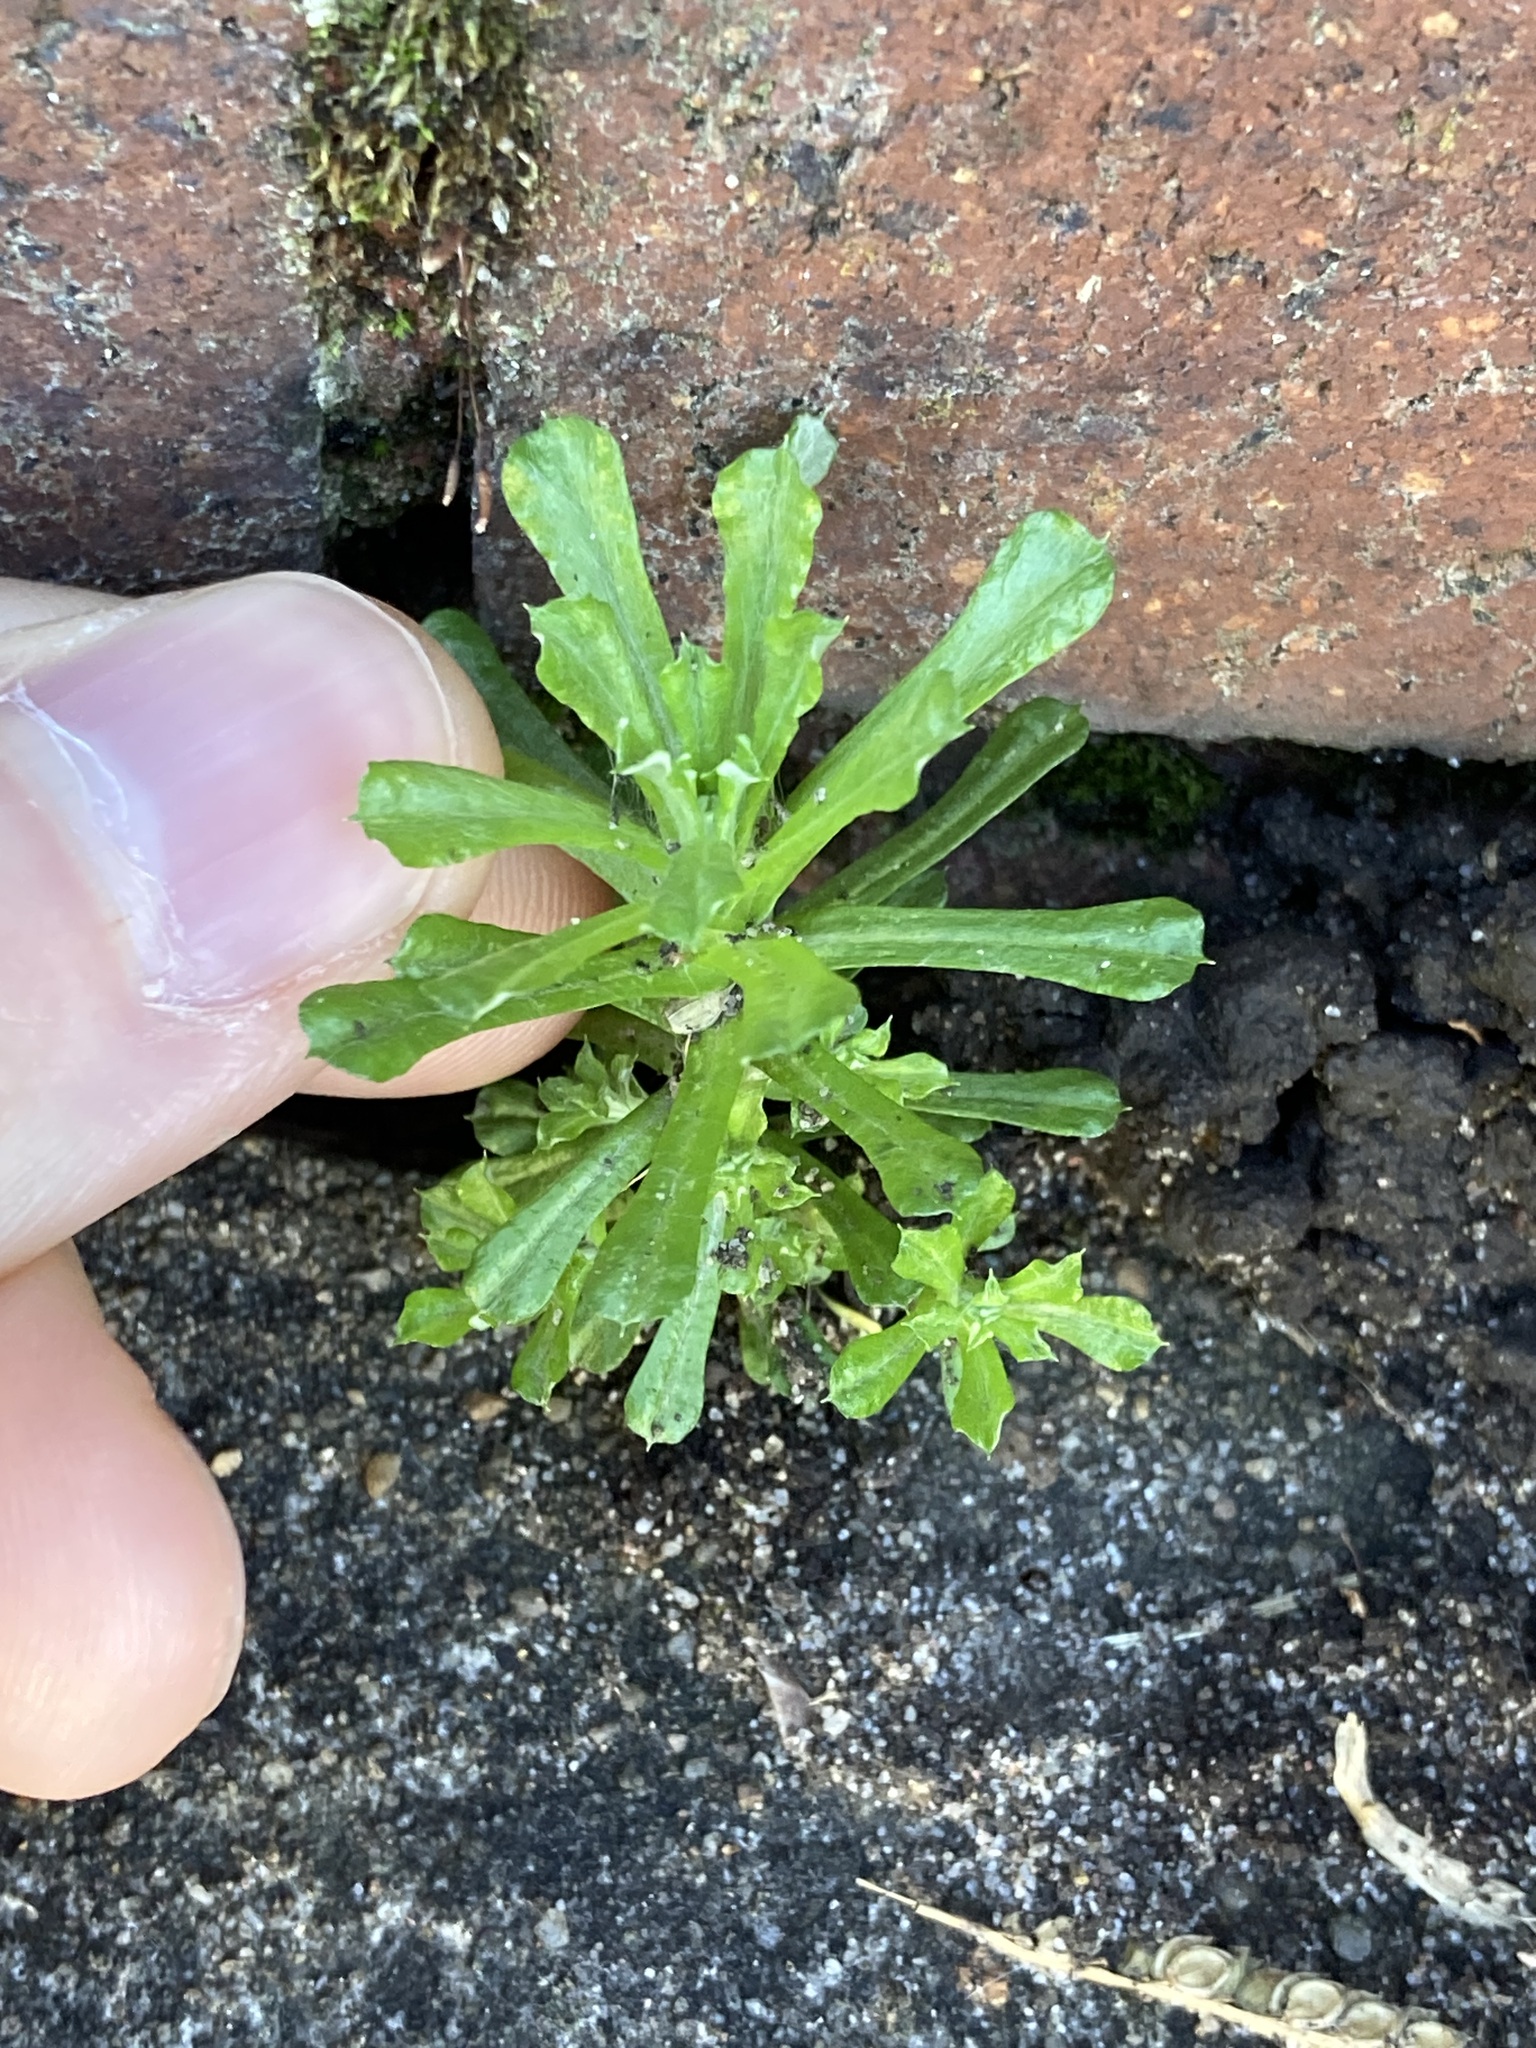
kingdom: Plantae
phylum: Tracheophyta
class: Magnoliopsida
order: Asterales
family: Asteraceae
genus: Facelis
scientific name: Facelis retusa
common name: Annual trampweed
